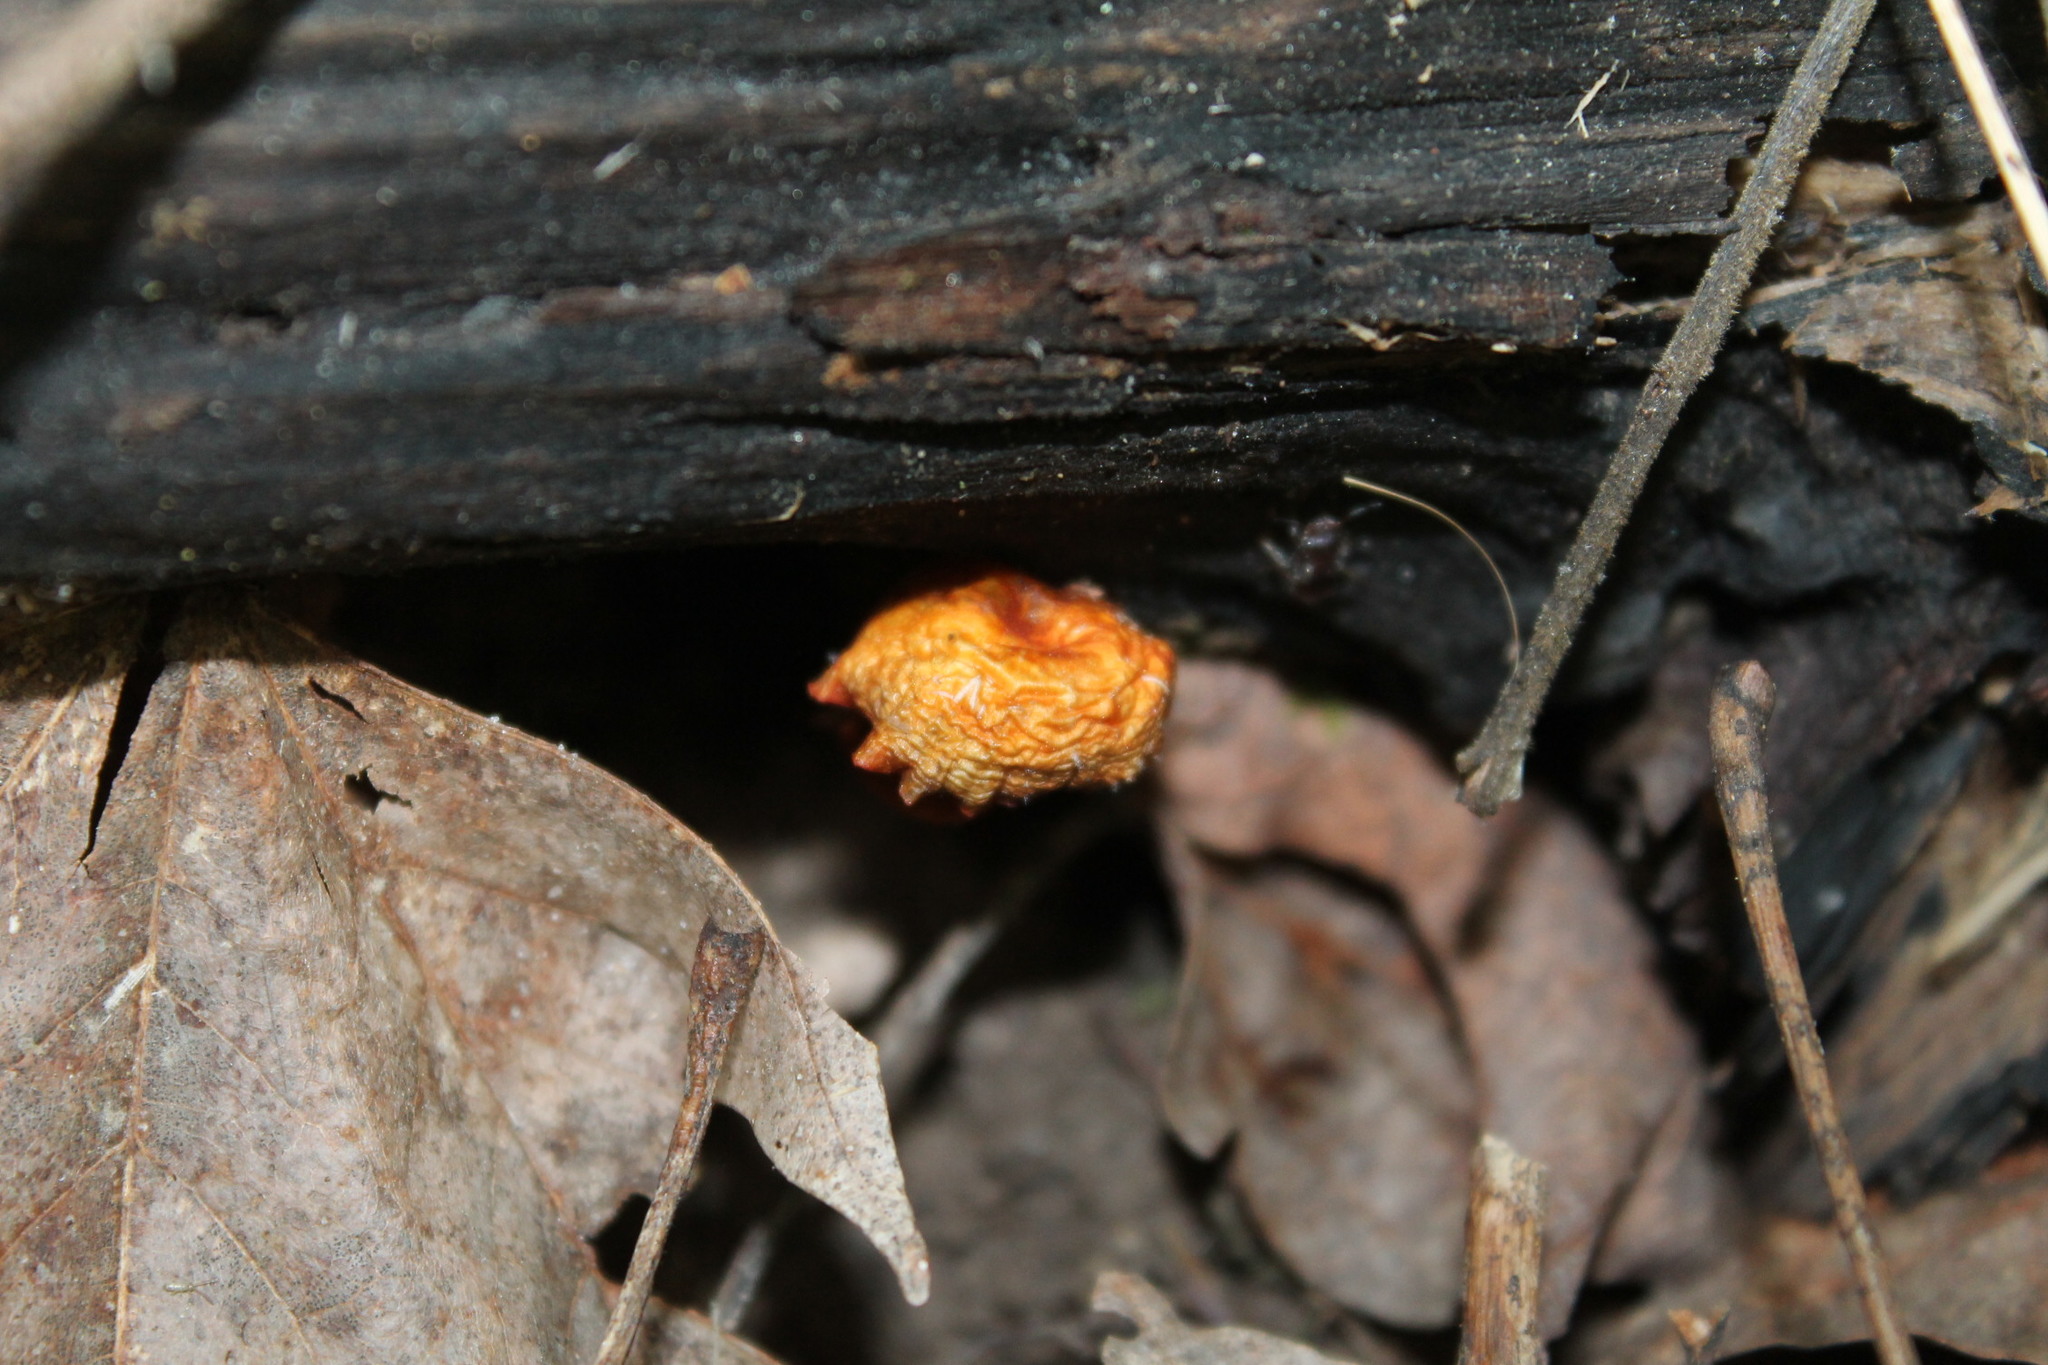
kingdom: Fungi
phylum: Basidiomycota
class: Agaricomycetes
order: Agaricales
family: Mycenaceae
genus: Mycena
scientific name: Mycena leaiana
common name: Orange mycena
